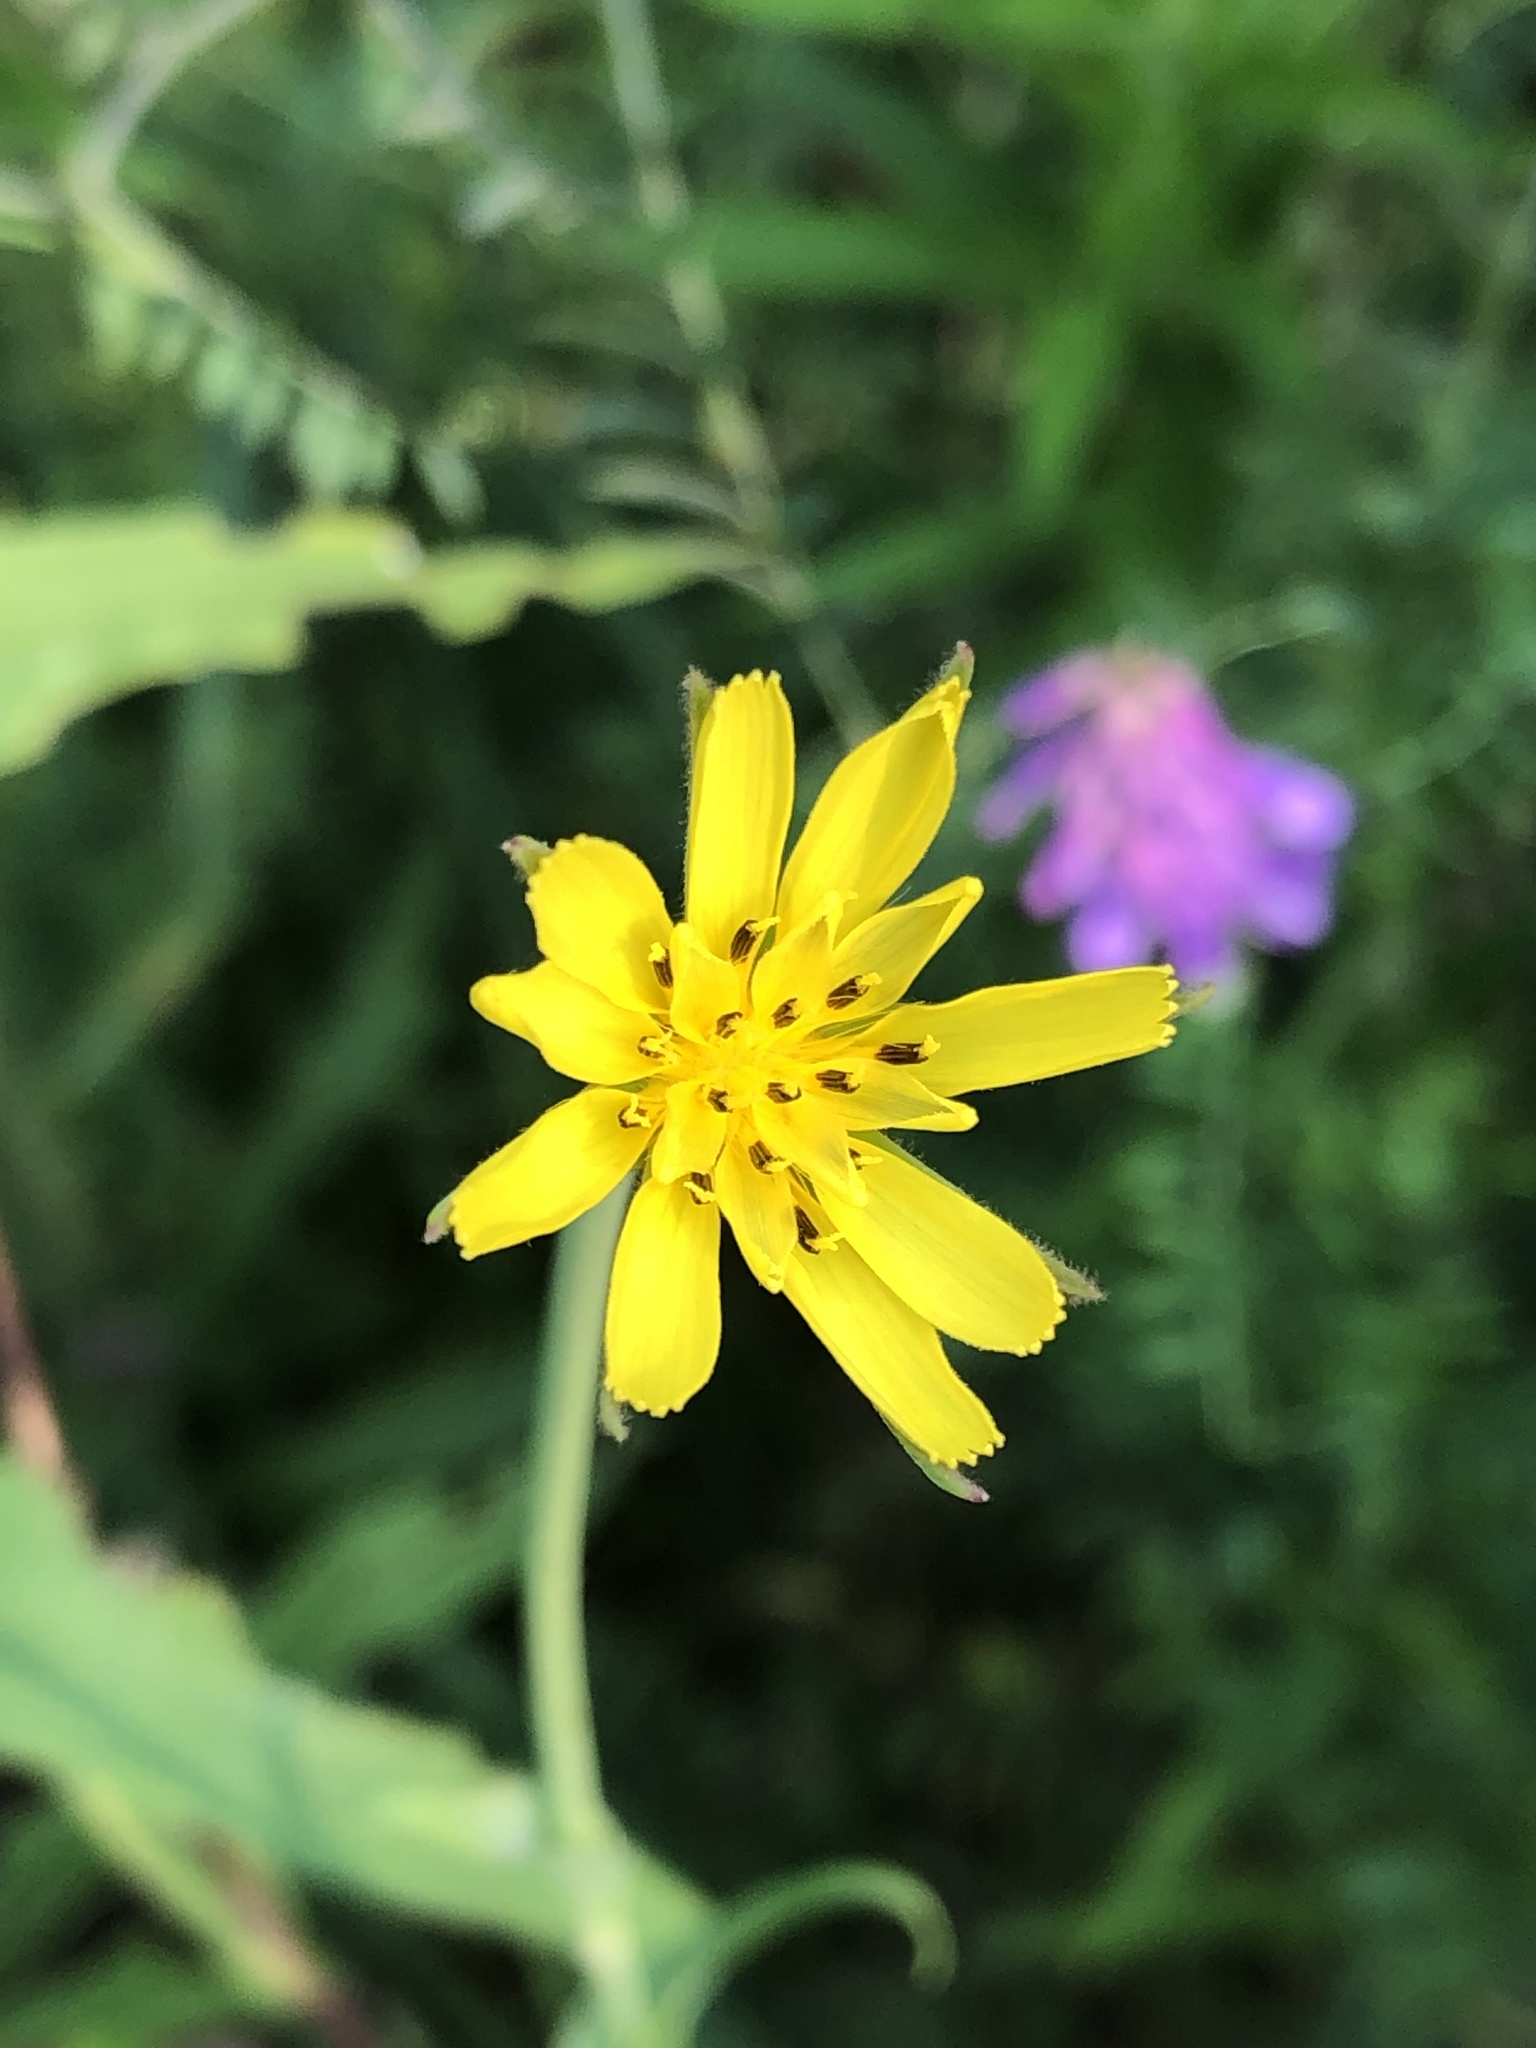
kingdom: Plantae
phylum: Tracheophyta
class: Magnoliopsida
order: Asterales
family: Asteraceae
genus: Tragopogon
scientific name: Tragopogon pratensis
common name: Goat's-beard
